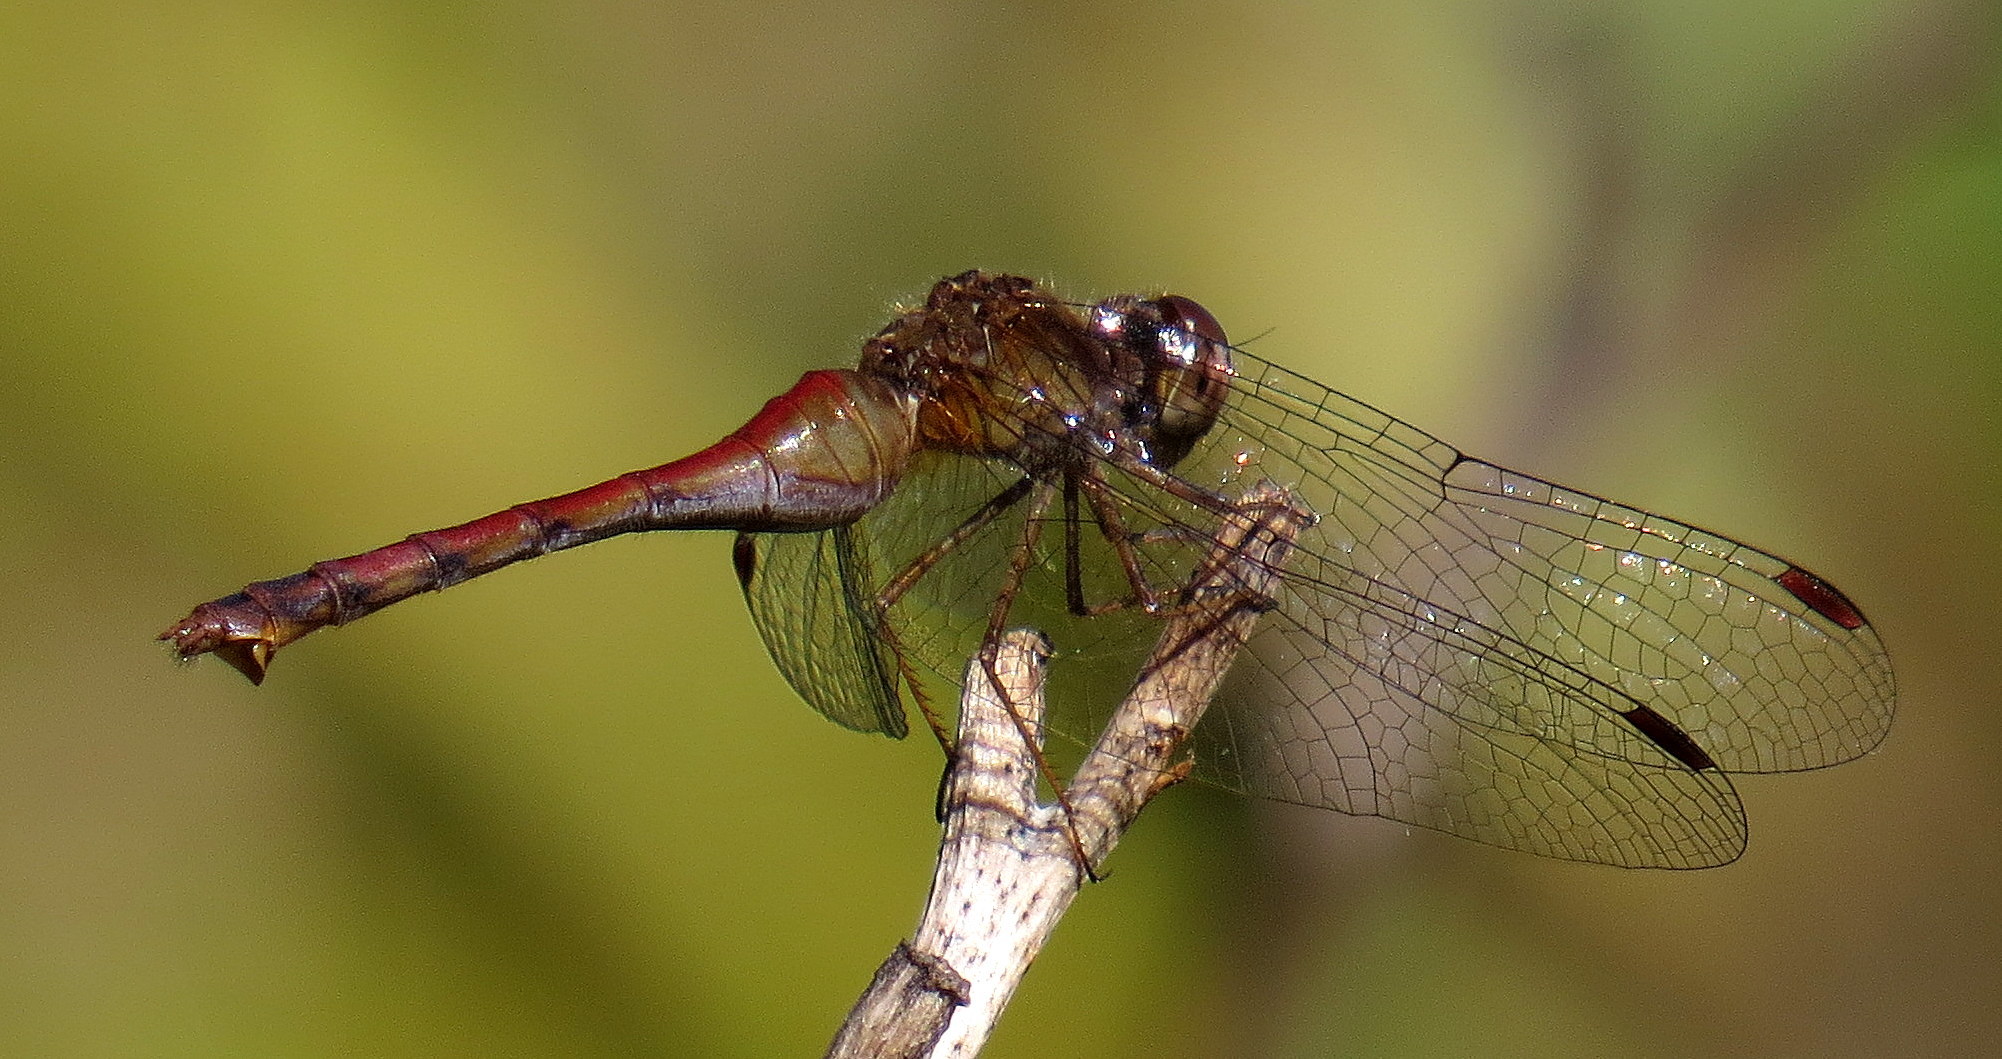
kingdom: Animalia
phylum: Arthropoda
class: Insecta
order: Odonata
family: Libellulidae
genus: Sympetrum
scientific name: Sympetrum vicinum
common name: Autumn meadowhawk
